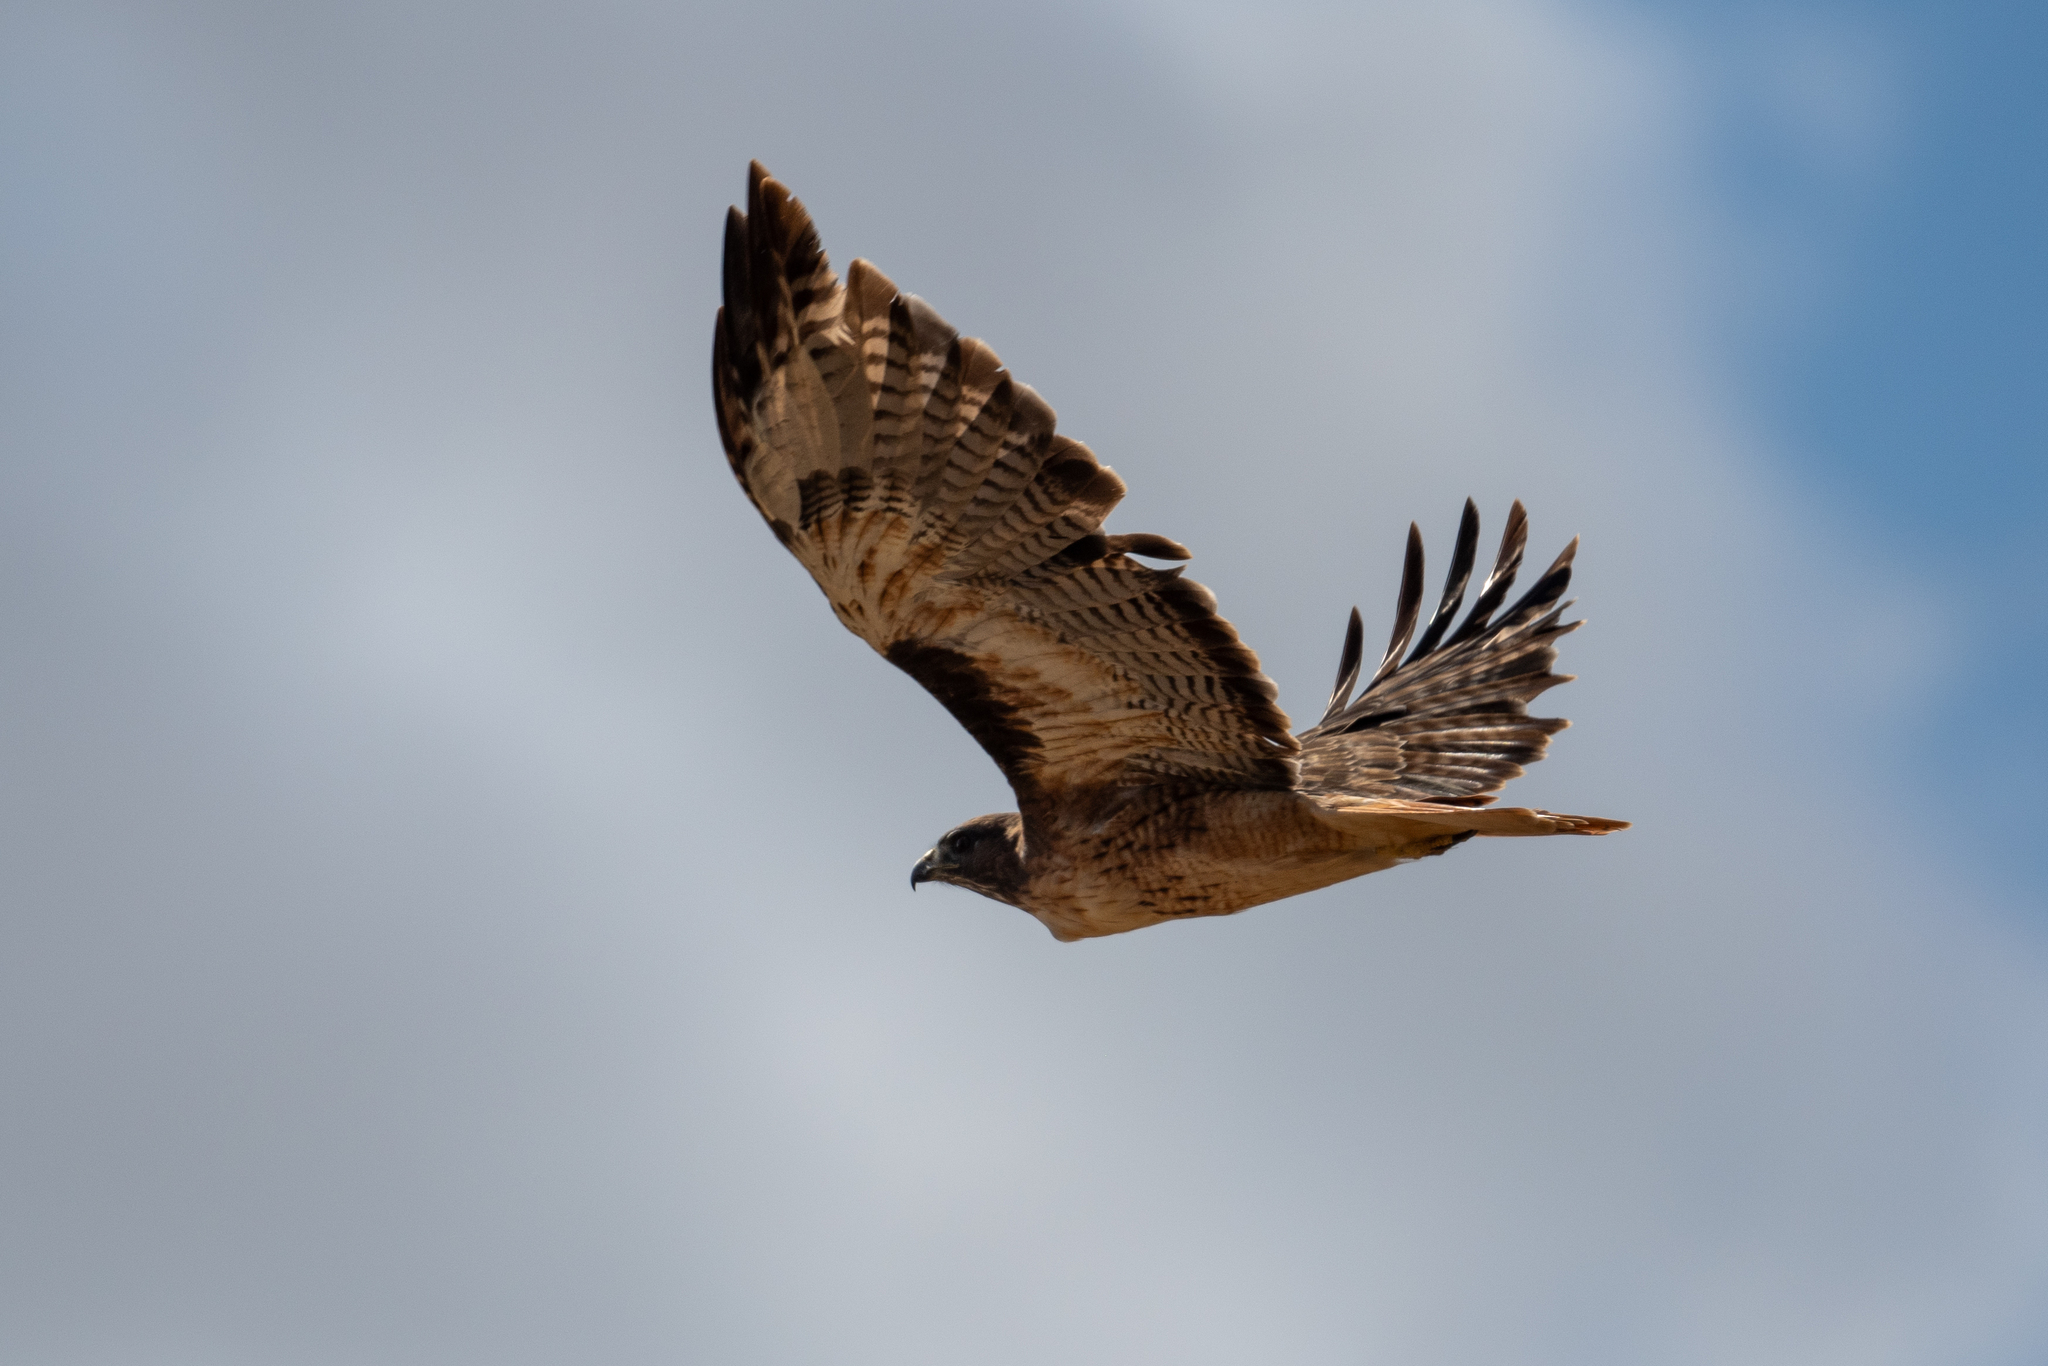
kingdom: Animalia
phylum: Chordata
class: Aves
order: Accipitriformes
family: Accipitridae
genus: Buteo
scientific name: Buteo jamaicensis
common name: Red-tailed hawk
